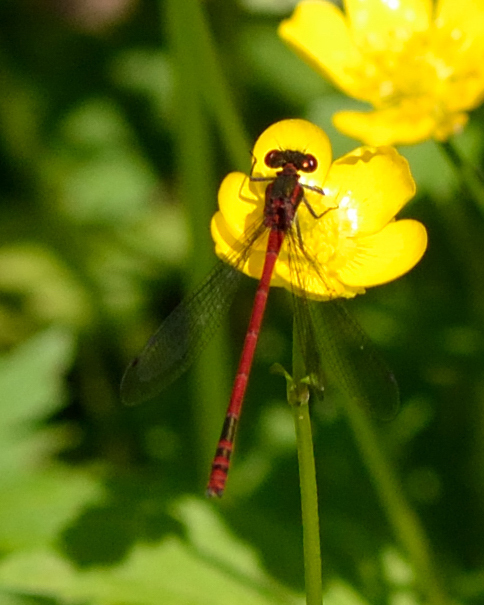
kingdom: Animalia
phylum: Arthropoda
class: Insecta
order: Odonata
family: Coenagrionidae
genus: Pyrrhosoma
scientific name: Pyrrhosoma nymphula
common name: Large red damsel
